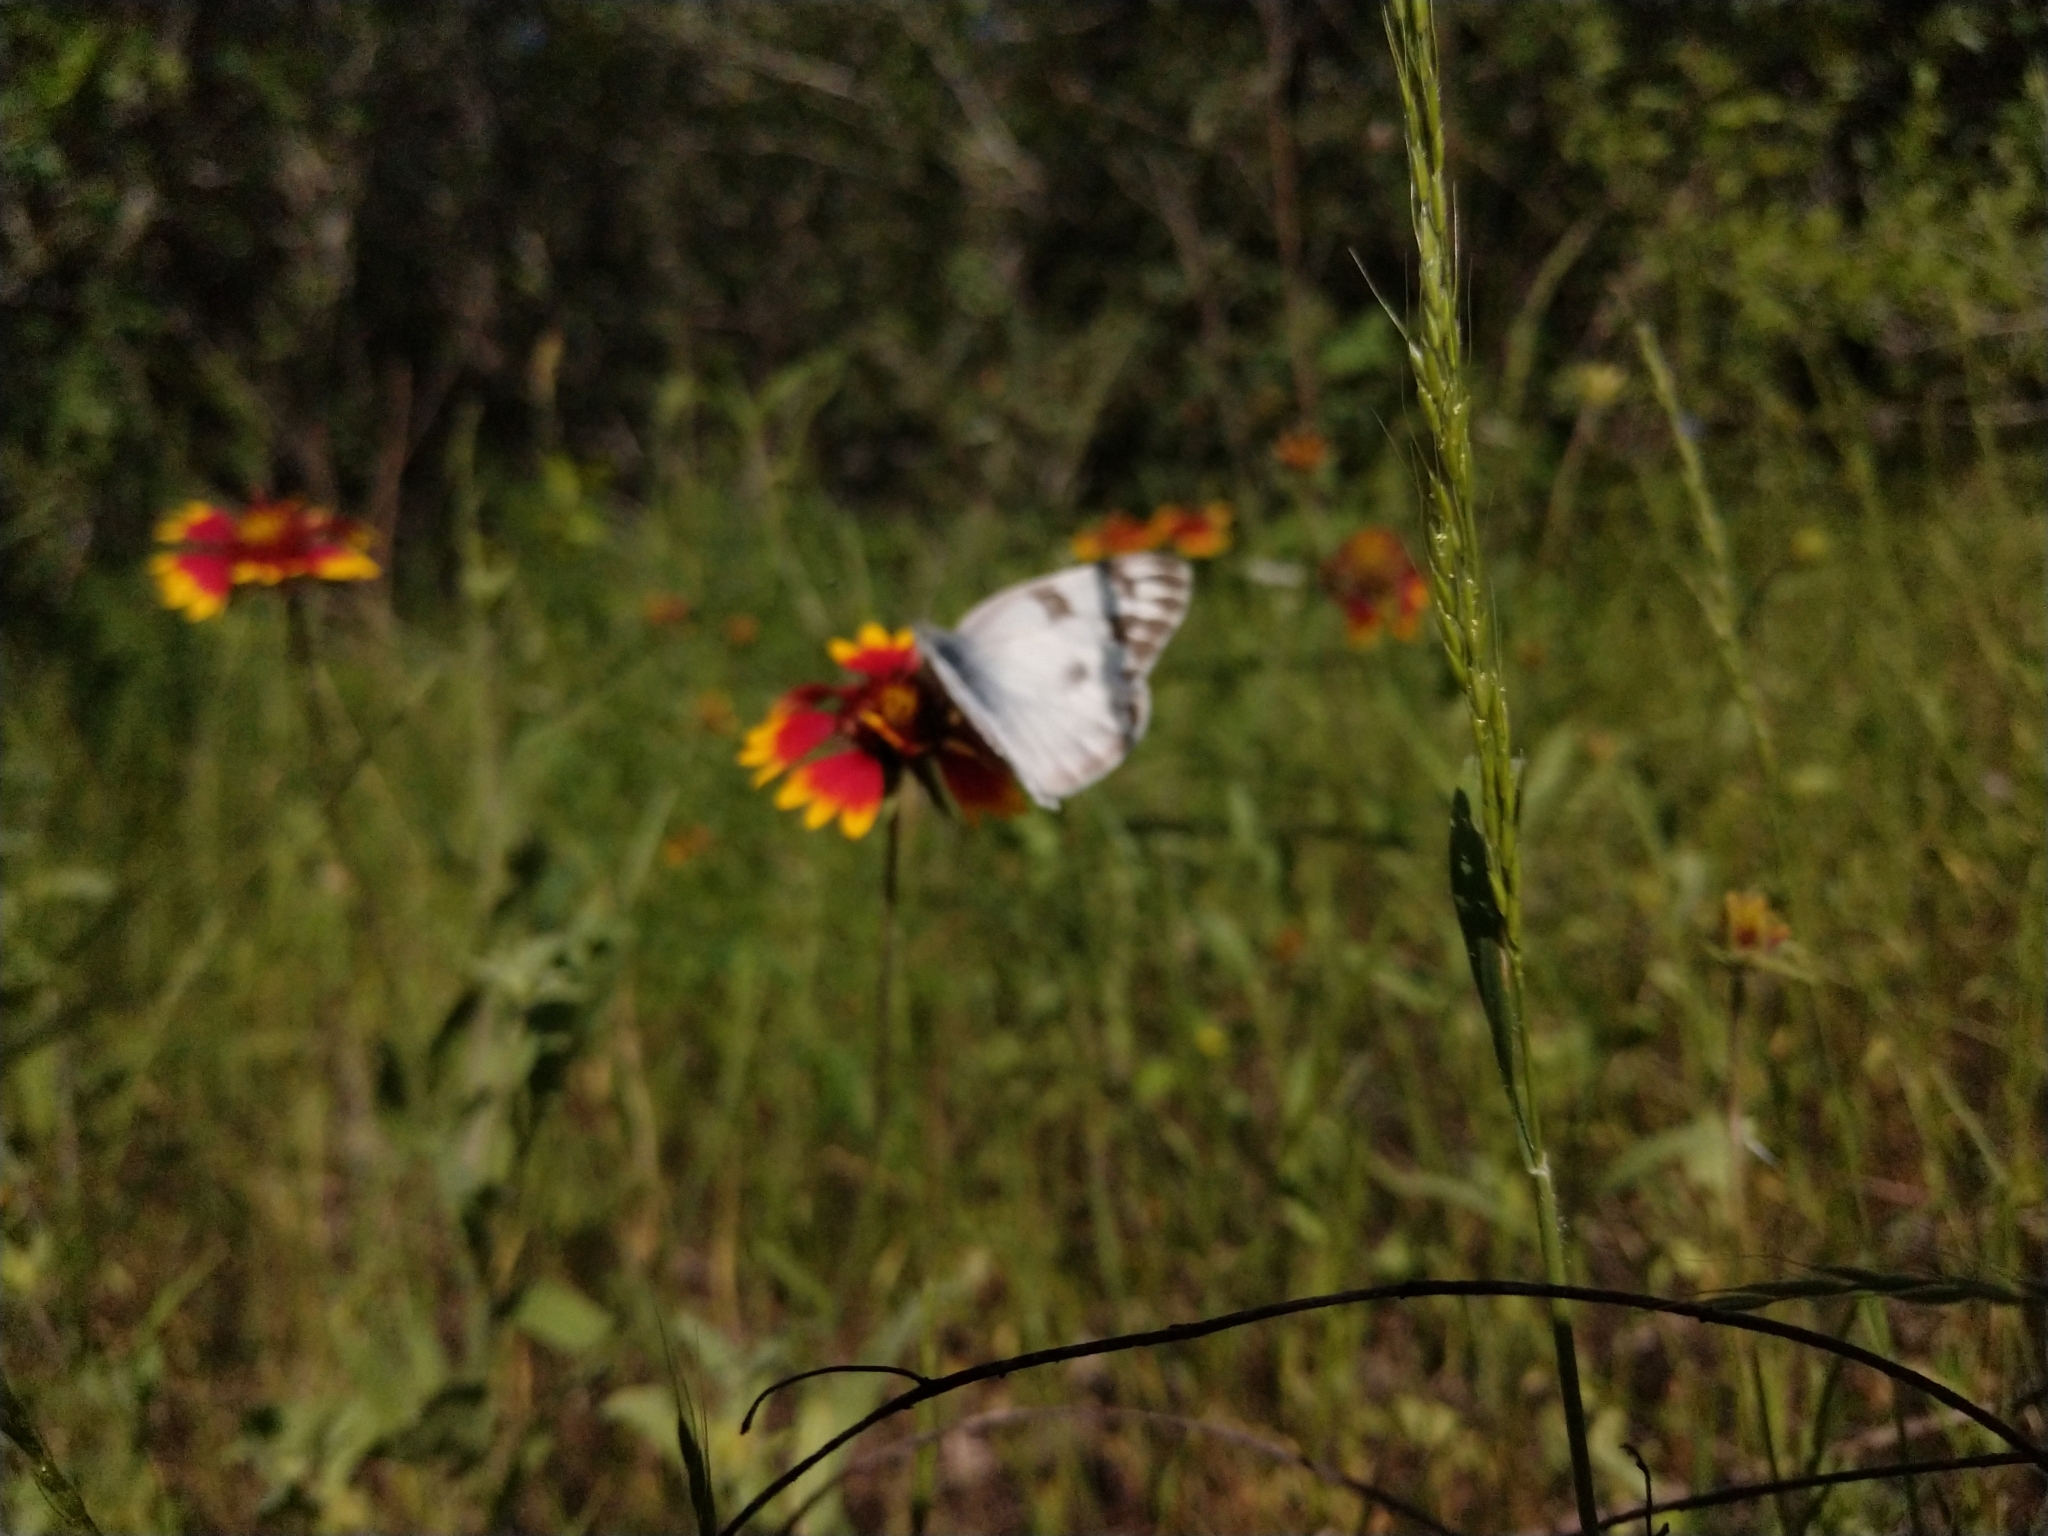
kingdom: Animalia
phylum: Arthropoda
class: Insecta
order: Lepidoptera
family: Pieridae
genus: Pontia
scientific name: Pontia protodice
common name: Checkered white
